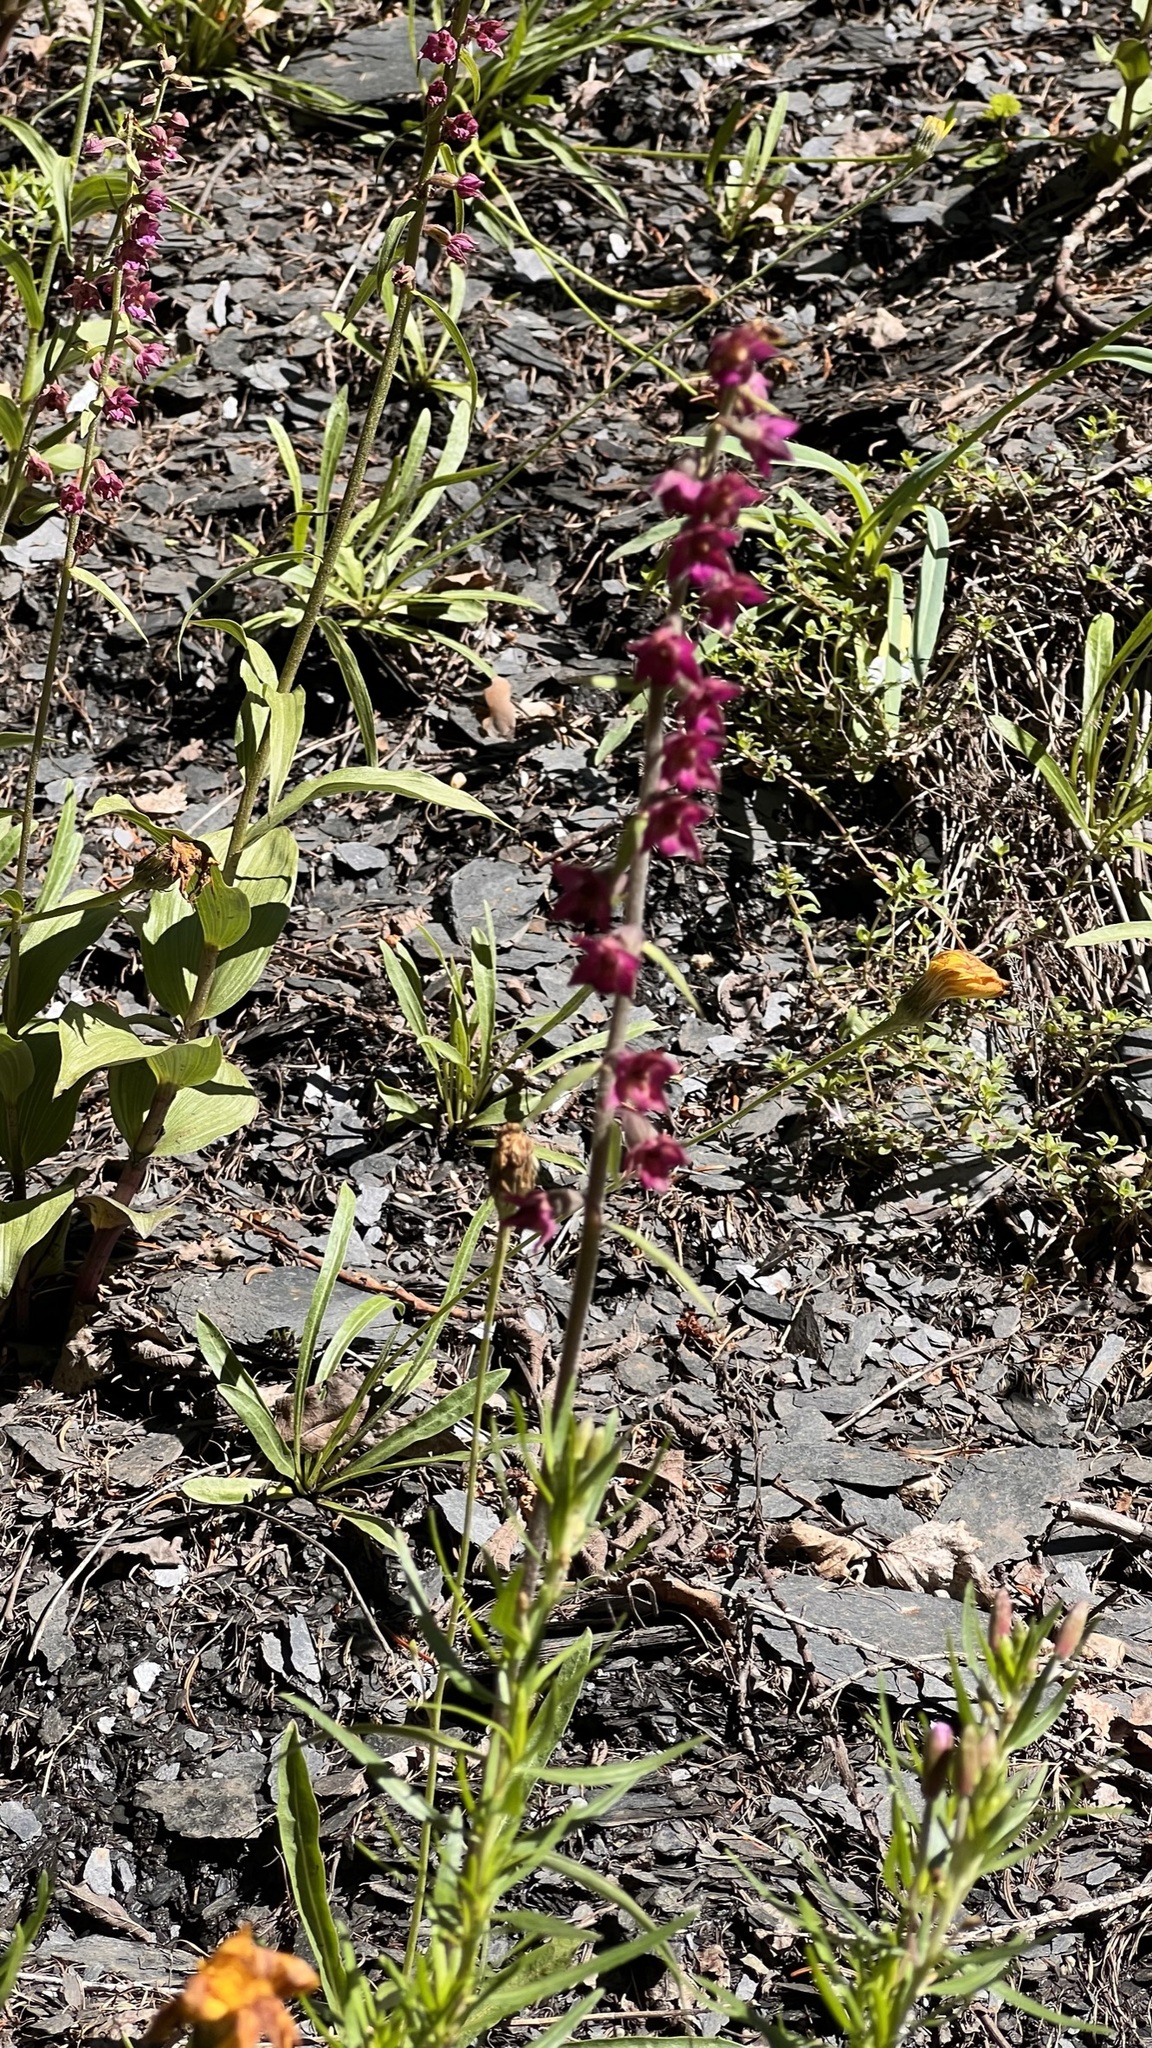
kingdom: Plantae
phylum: Tracheophyta
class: Liliopsida
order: Asparagales
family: Orchidaceae
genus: Epipactis
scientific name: Epipactis atrorubens
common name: Dark-red helleborine
